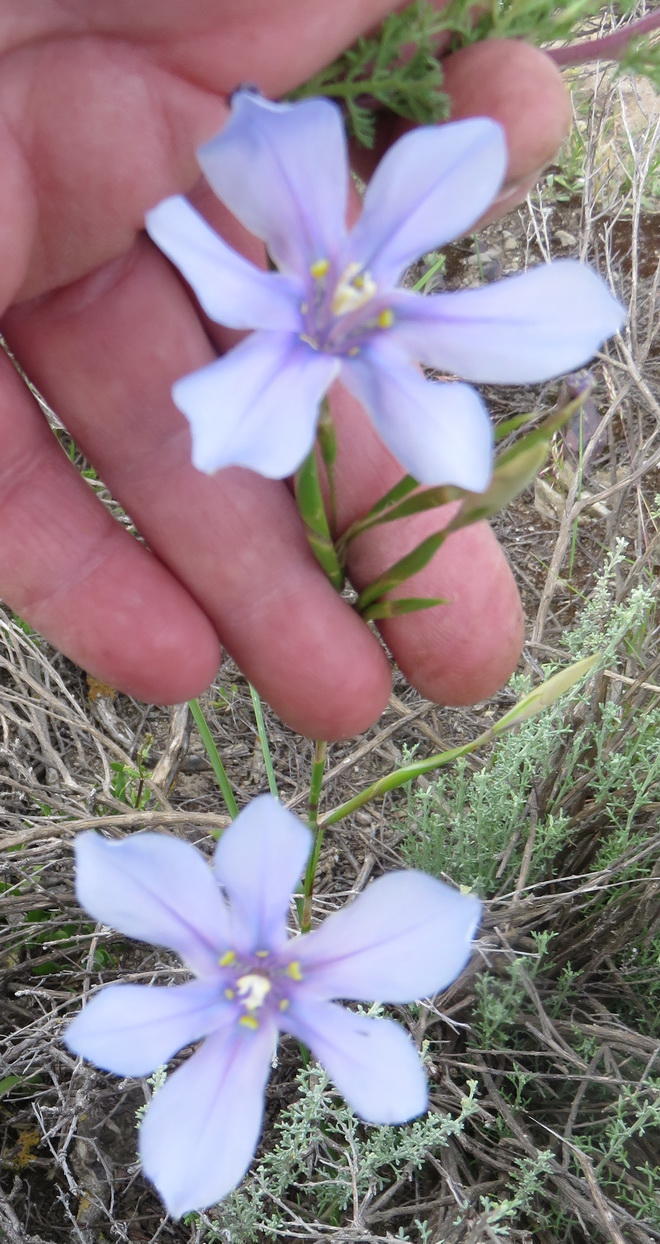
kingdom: Plantae
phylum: Tracheophyta
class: Liliopsida
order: Asparagales
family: Iridaceae
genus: Moraea
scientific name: Moraea polyanthos
